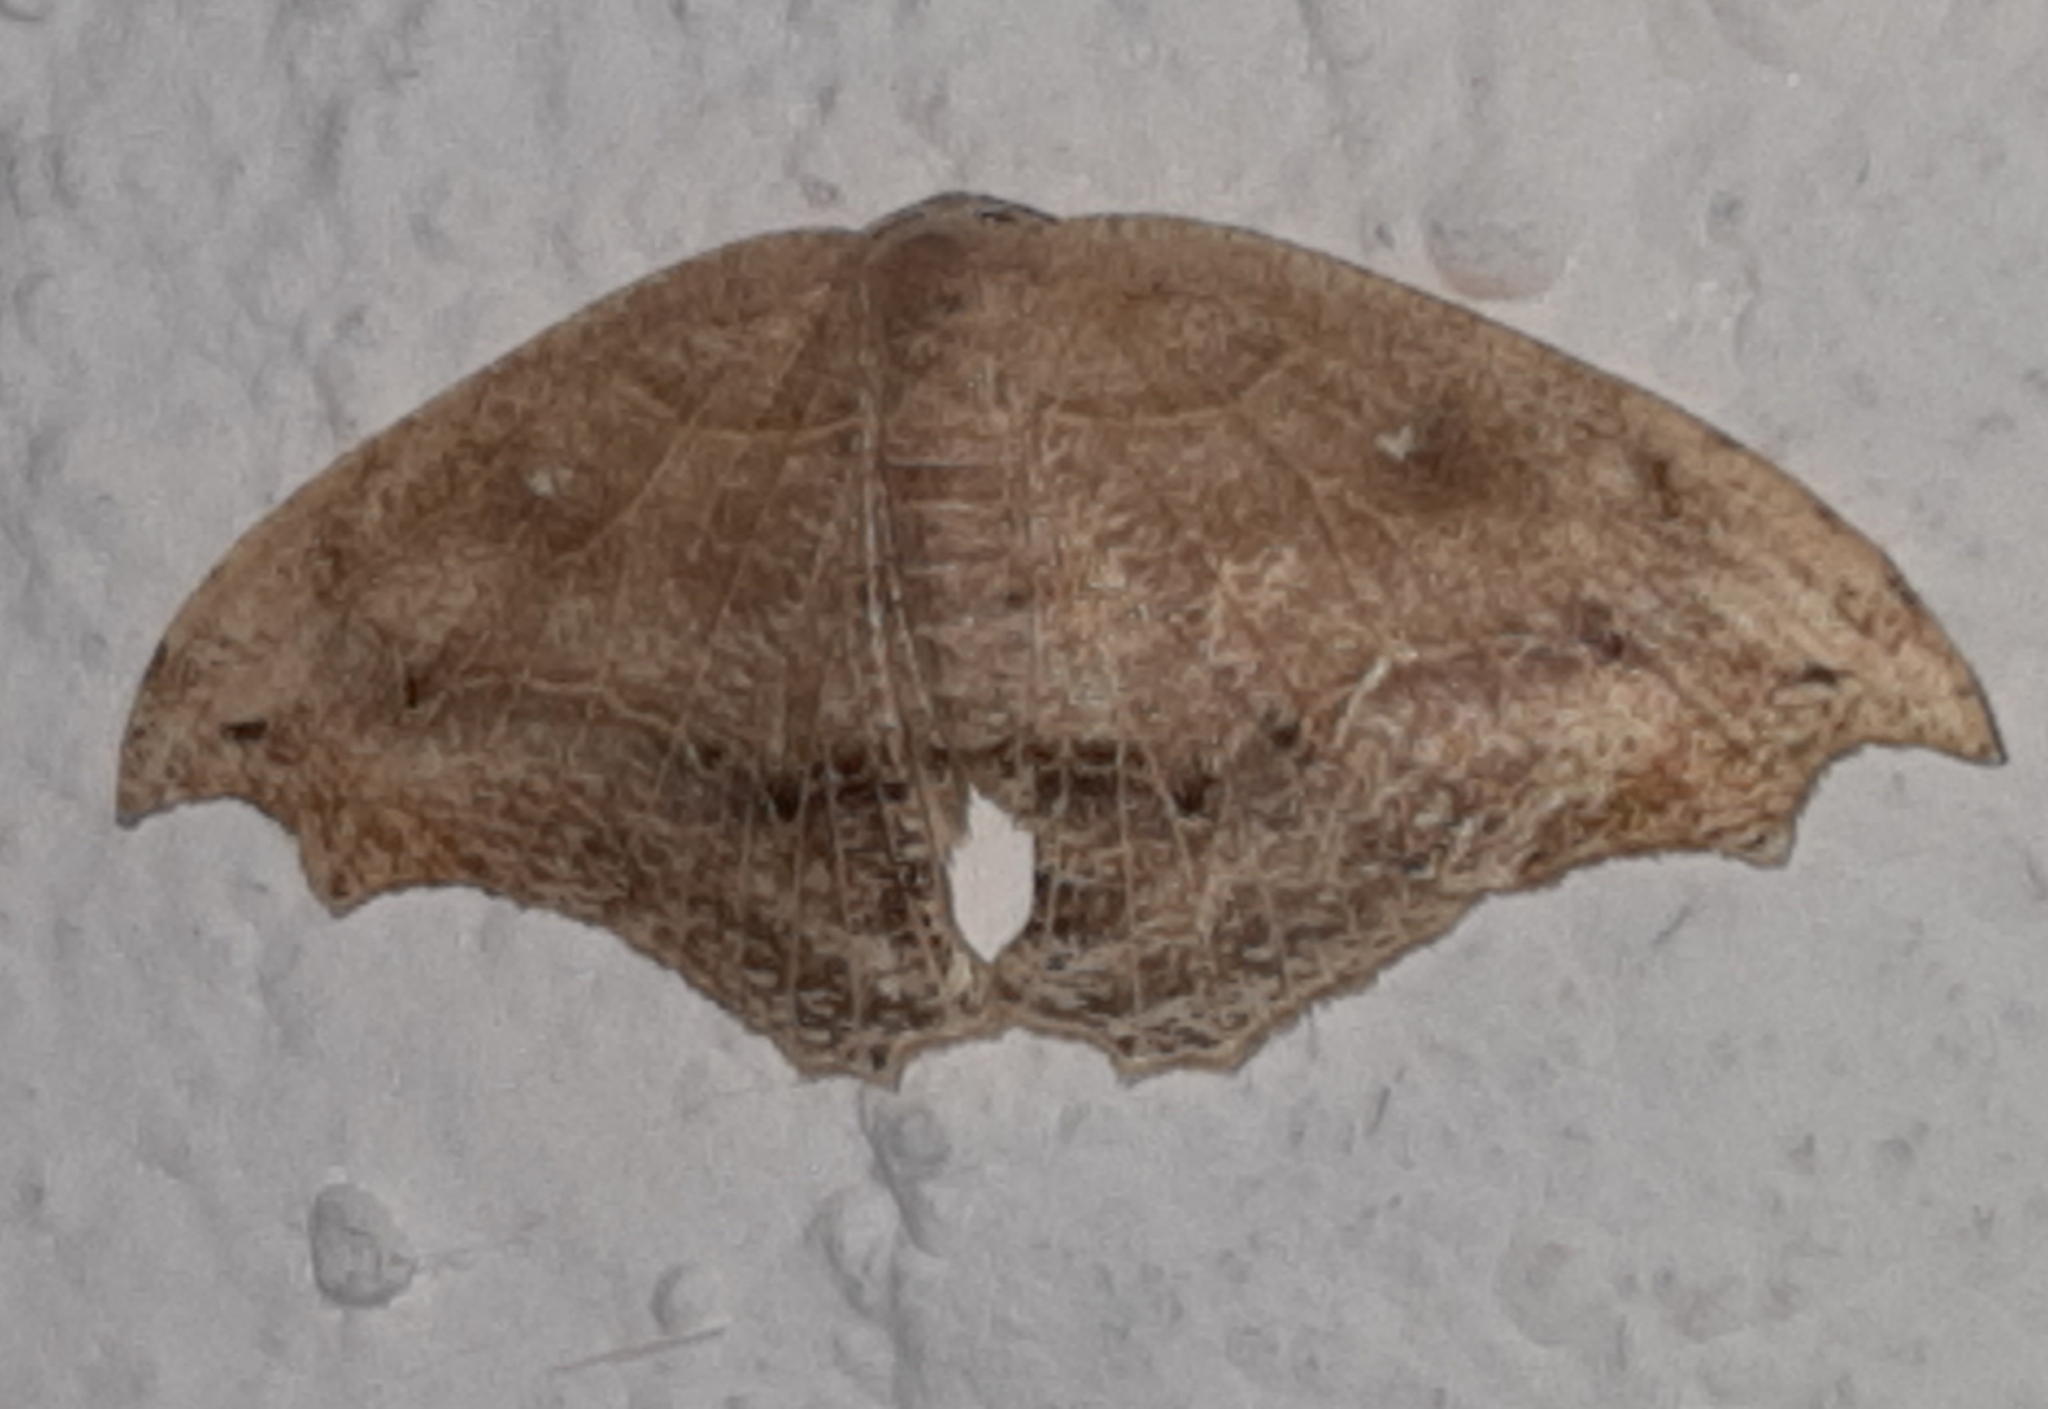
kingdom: Animalia
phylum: Arthropoda
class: Insecta
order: Lepidoptera
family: Uraniidae
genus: Coelurotricha
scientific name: Coelurotricha curvilinea
